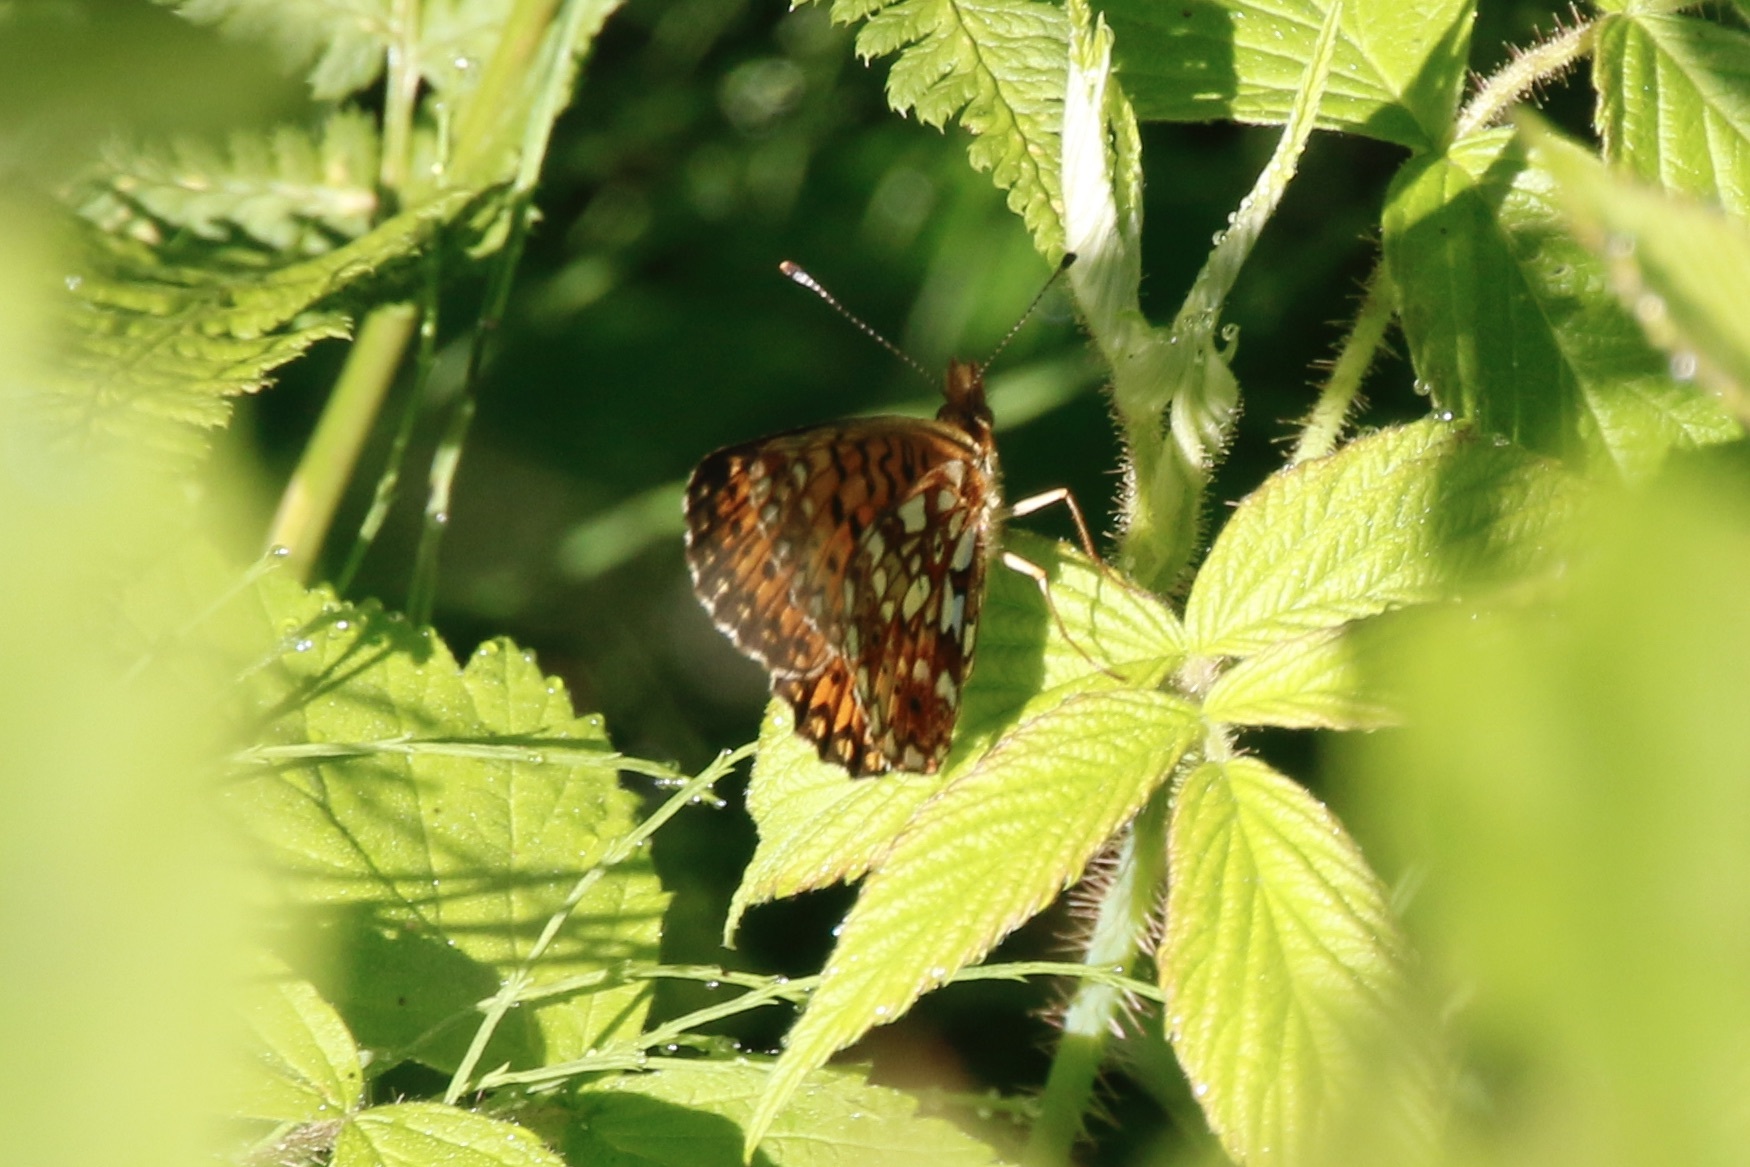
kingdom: Animalia
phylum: Arthropoda
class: Insecta
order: Lepidoptera
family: Nymphalidae
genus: Boloria
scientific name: Boloria
